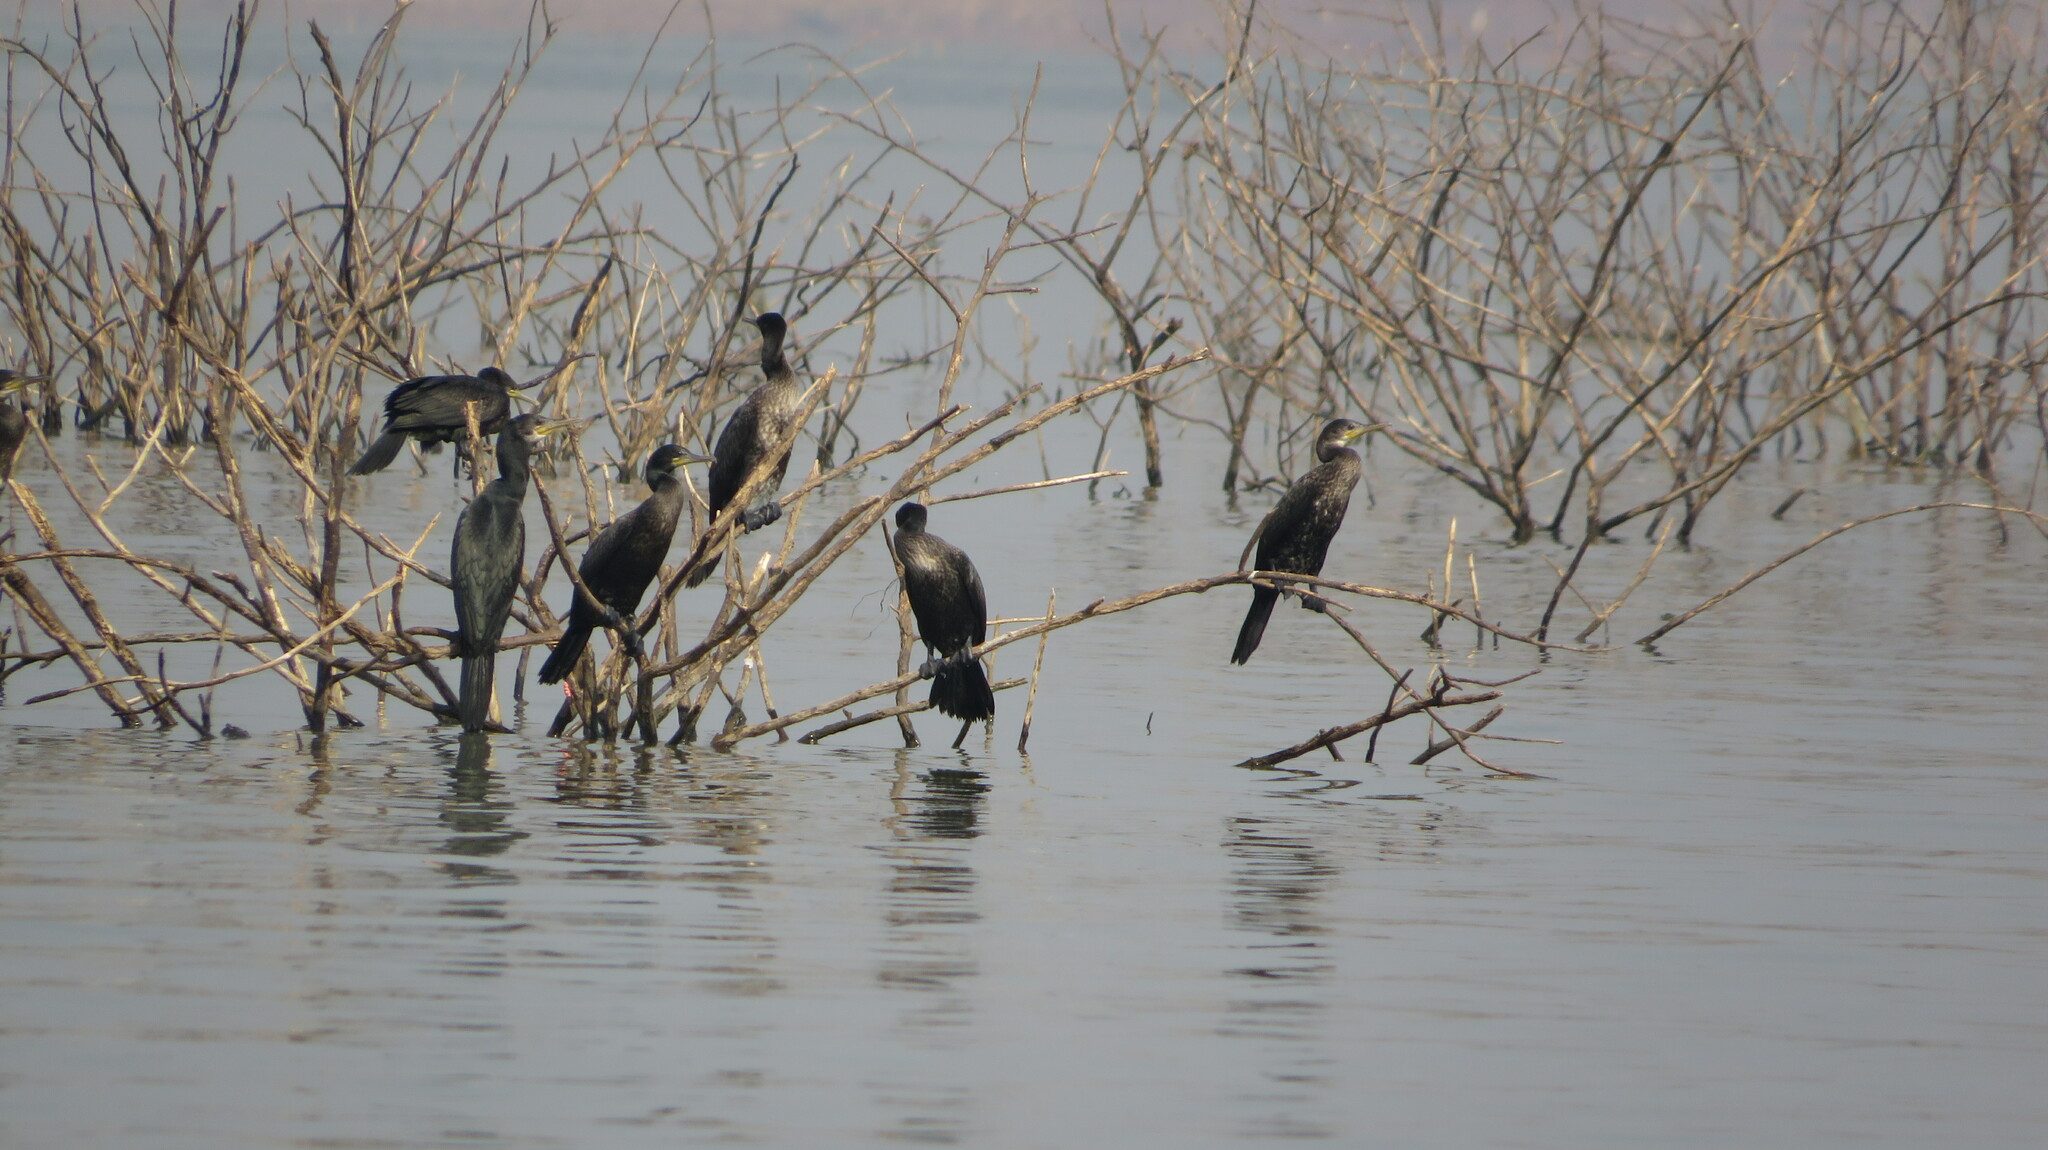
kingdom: Animalia
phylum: Chordata
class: Aves
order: Suliformes
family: Phalacrocoracidae
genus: Phalacrocorax
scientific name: Phalacrocorax fuscicollis
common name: Indian cormorant
